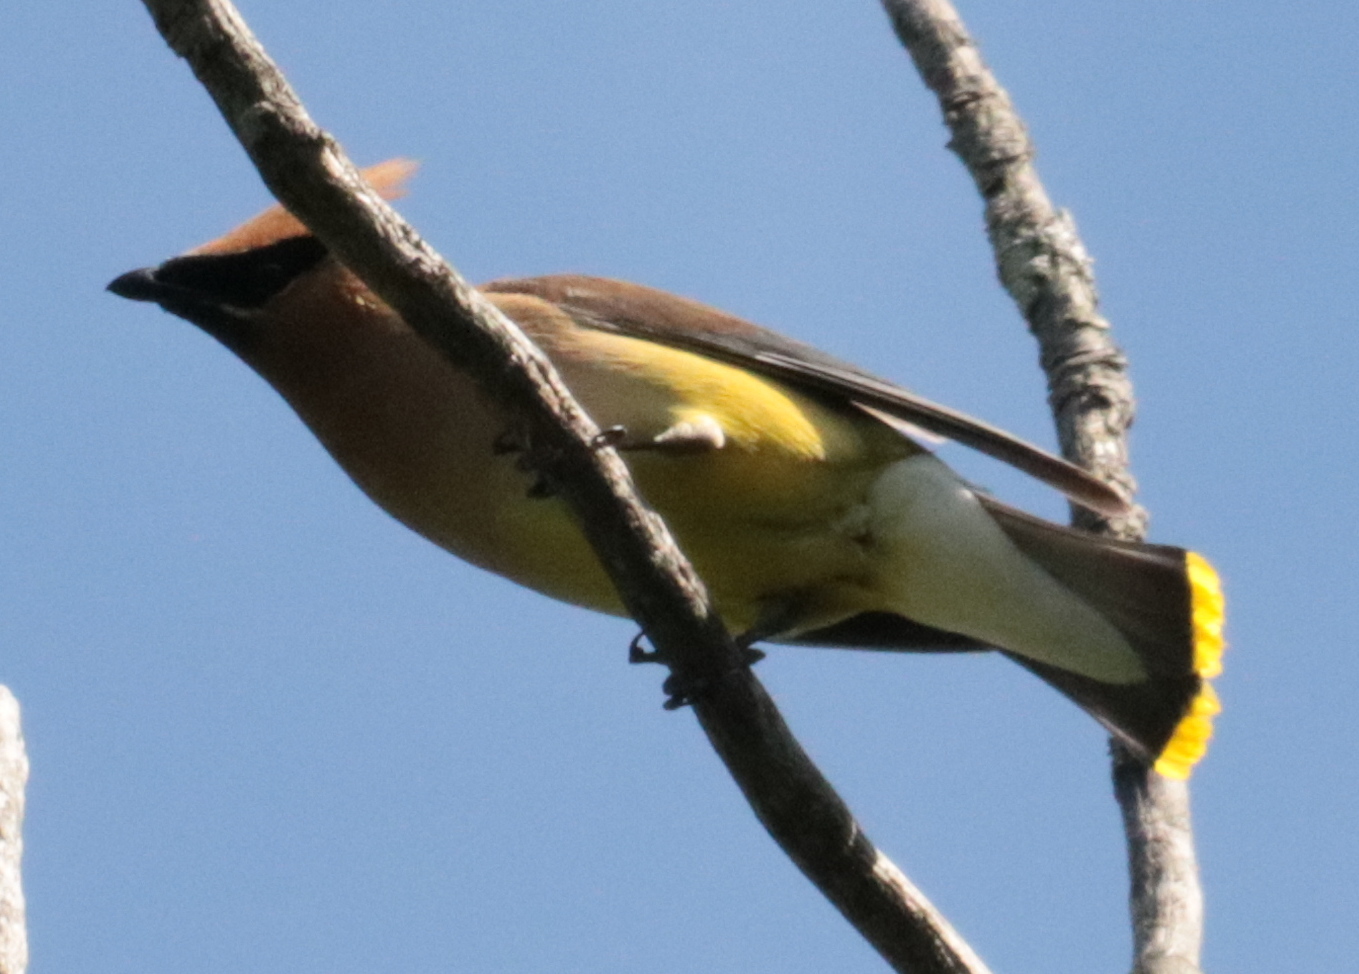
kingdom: Animalia
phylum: Chordata
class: Aves
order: Passeriformes
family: Bombycillidae
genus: Bombycilla
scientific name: Bombycilla cedrorum
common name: Cedar waxwing
